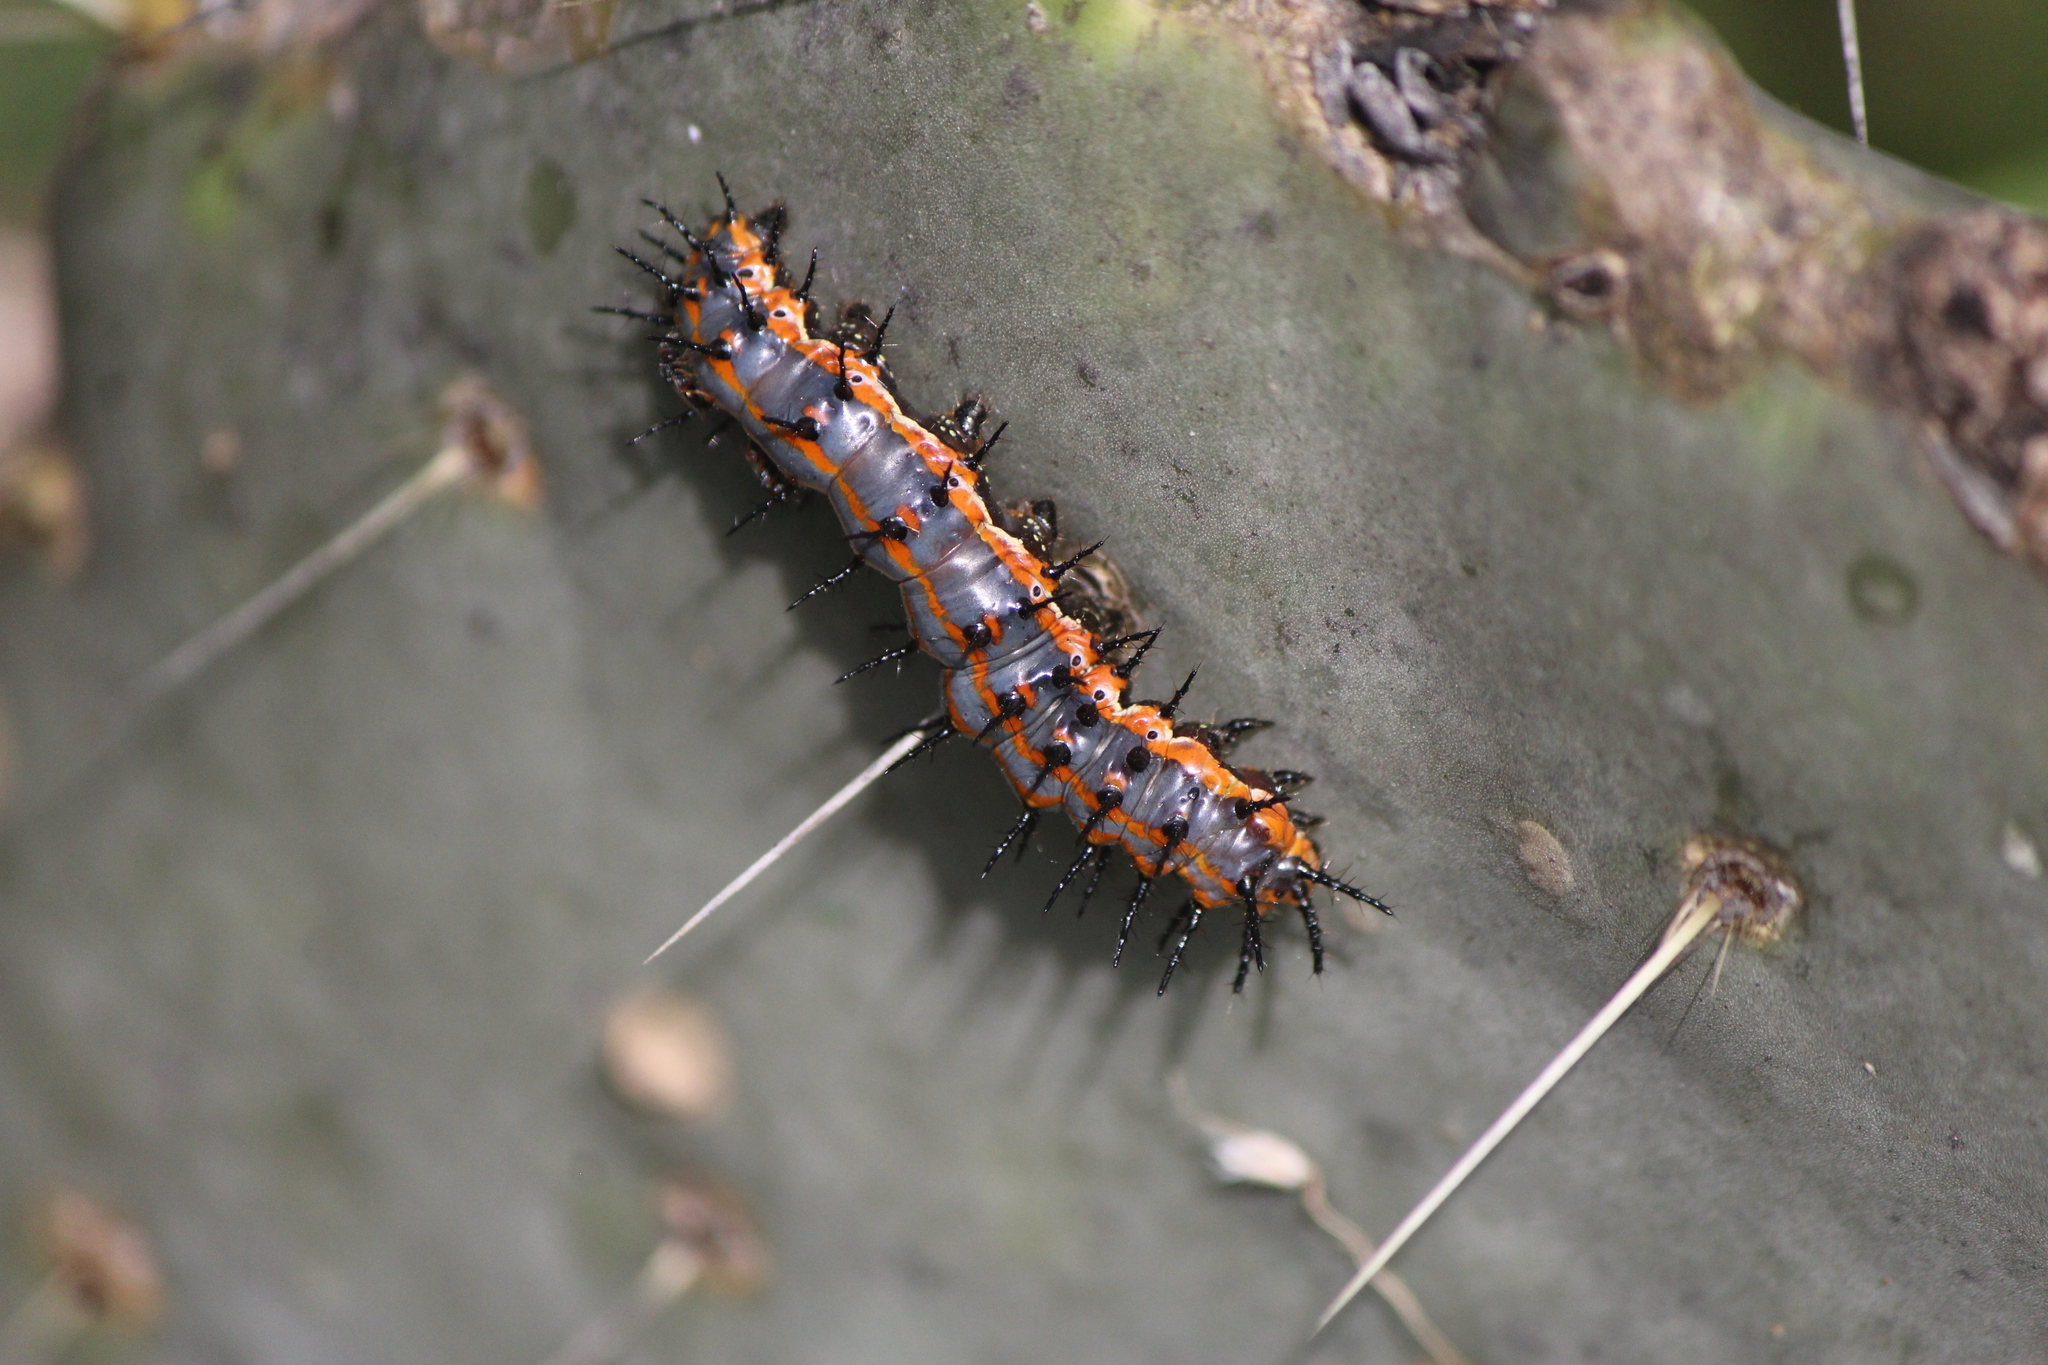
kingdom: Animalia
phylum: Arthropoda
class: Insecta
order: Lepidoptera
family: Nymphalidae
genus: Dione
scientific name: Dione vanillae
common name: Gulf fritillary
